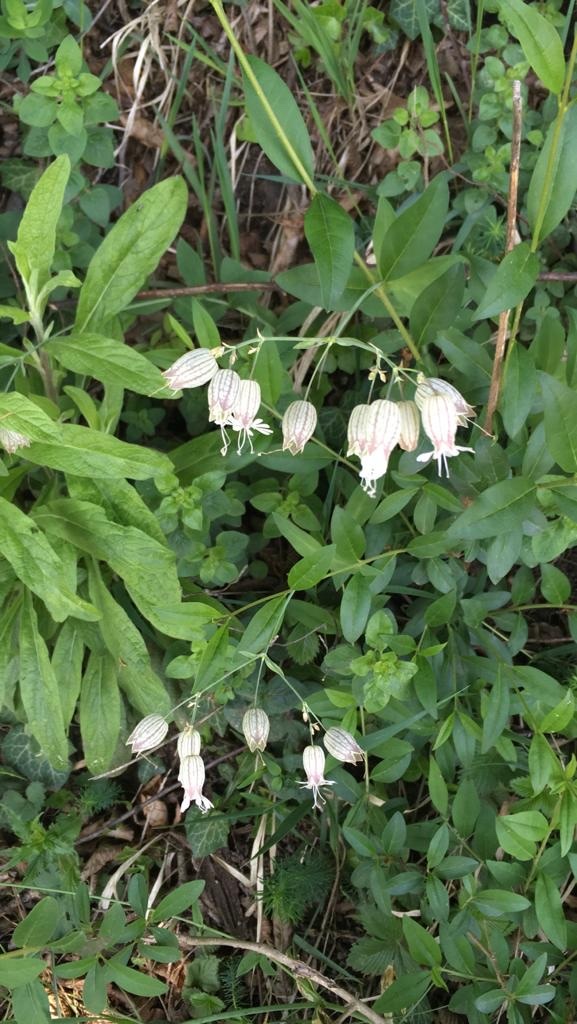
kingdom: Plantae
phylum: Tracheophyta
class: Magnoliopsida
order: Caryophyllales
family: Caryophyllaceae
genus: Silene
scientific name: Silene vulgaris
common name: Bladder campion
